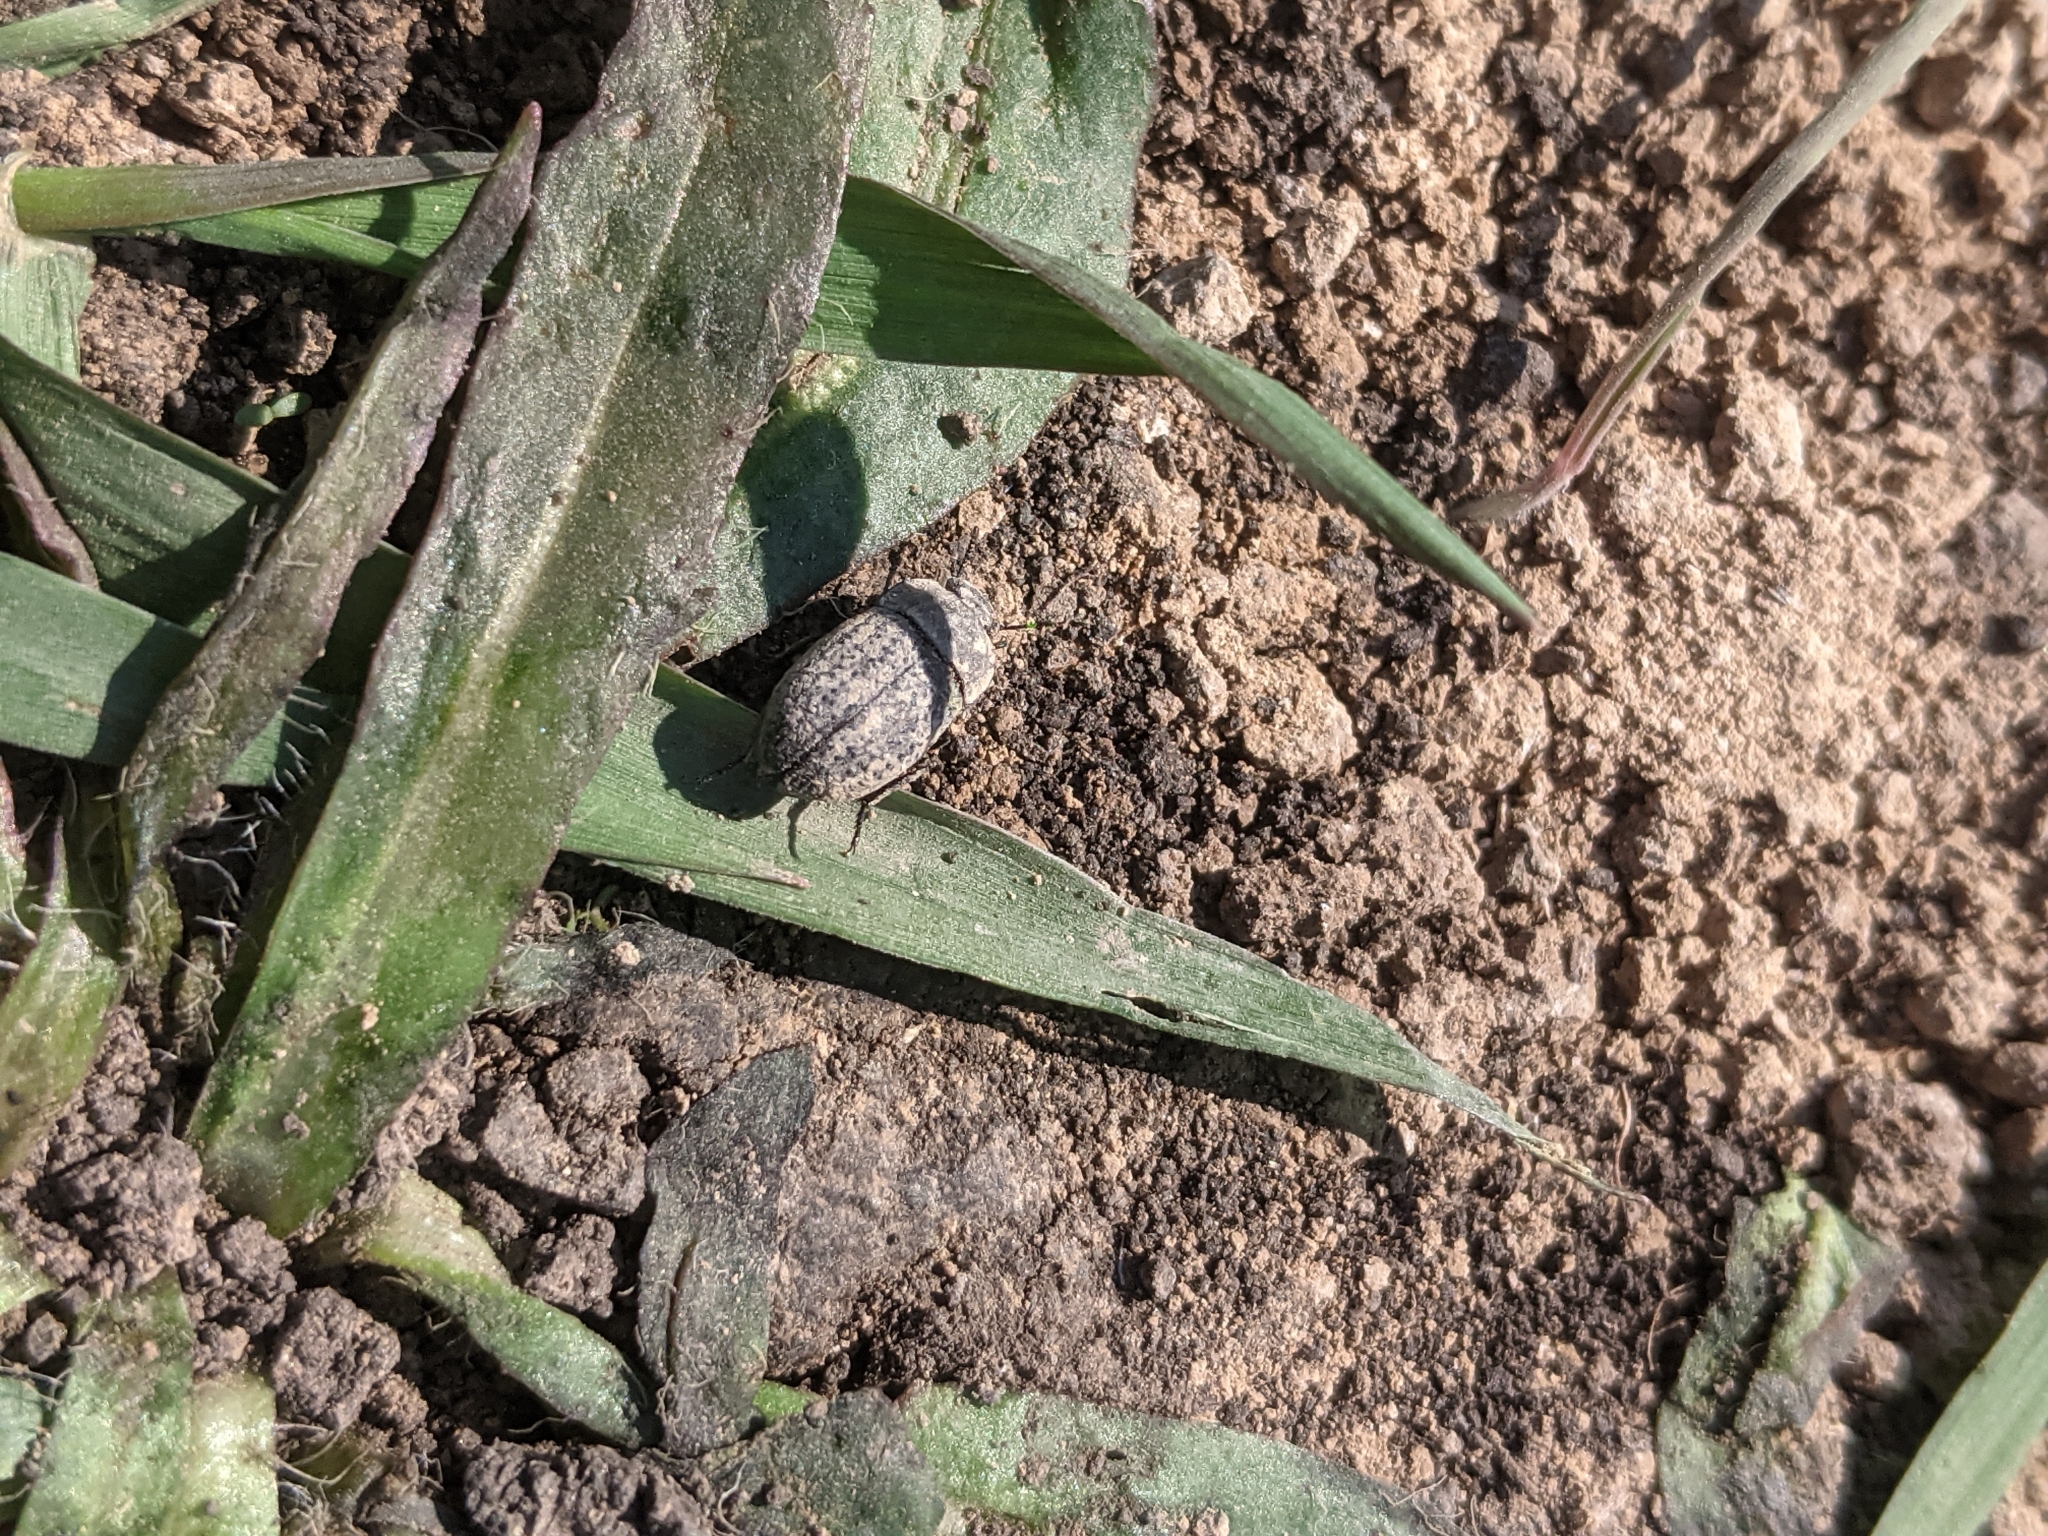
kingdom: Animalia
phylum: Arthropoda
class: Insecta
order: Coleoptera
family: Tenebrionidae
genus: Opatrum
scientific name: Opatrum sabulosum
